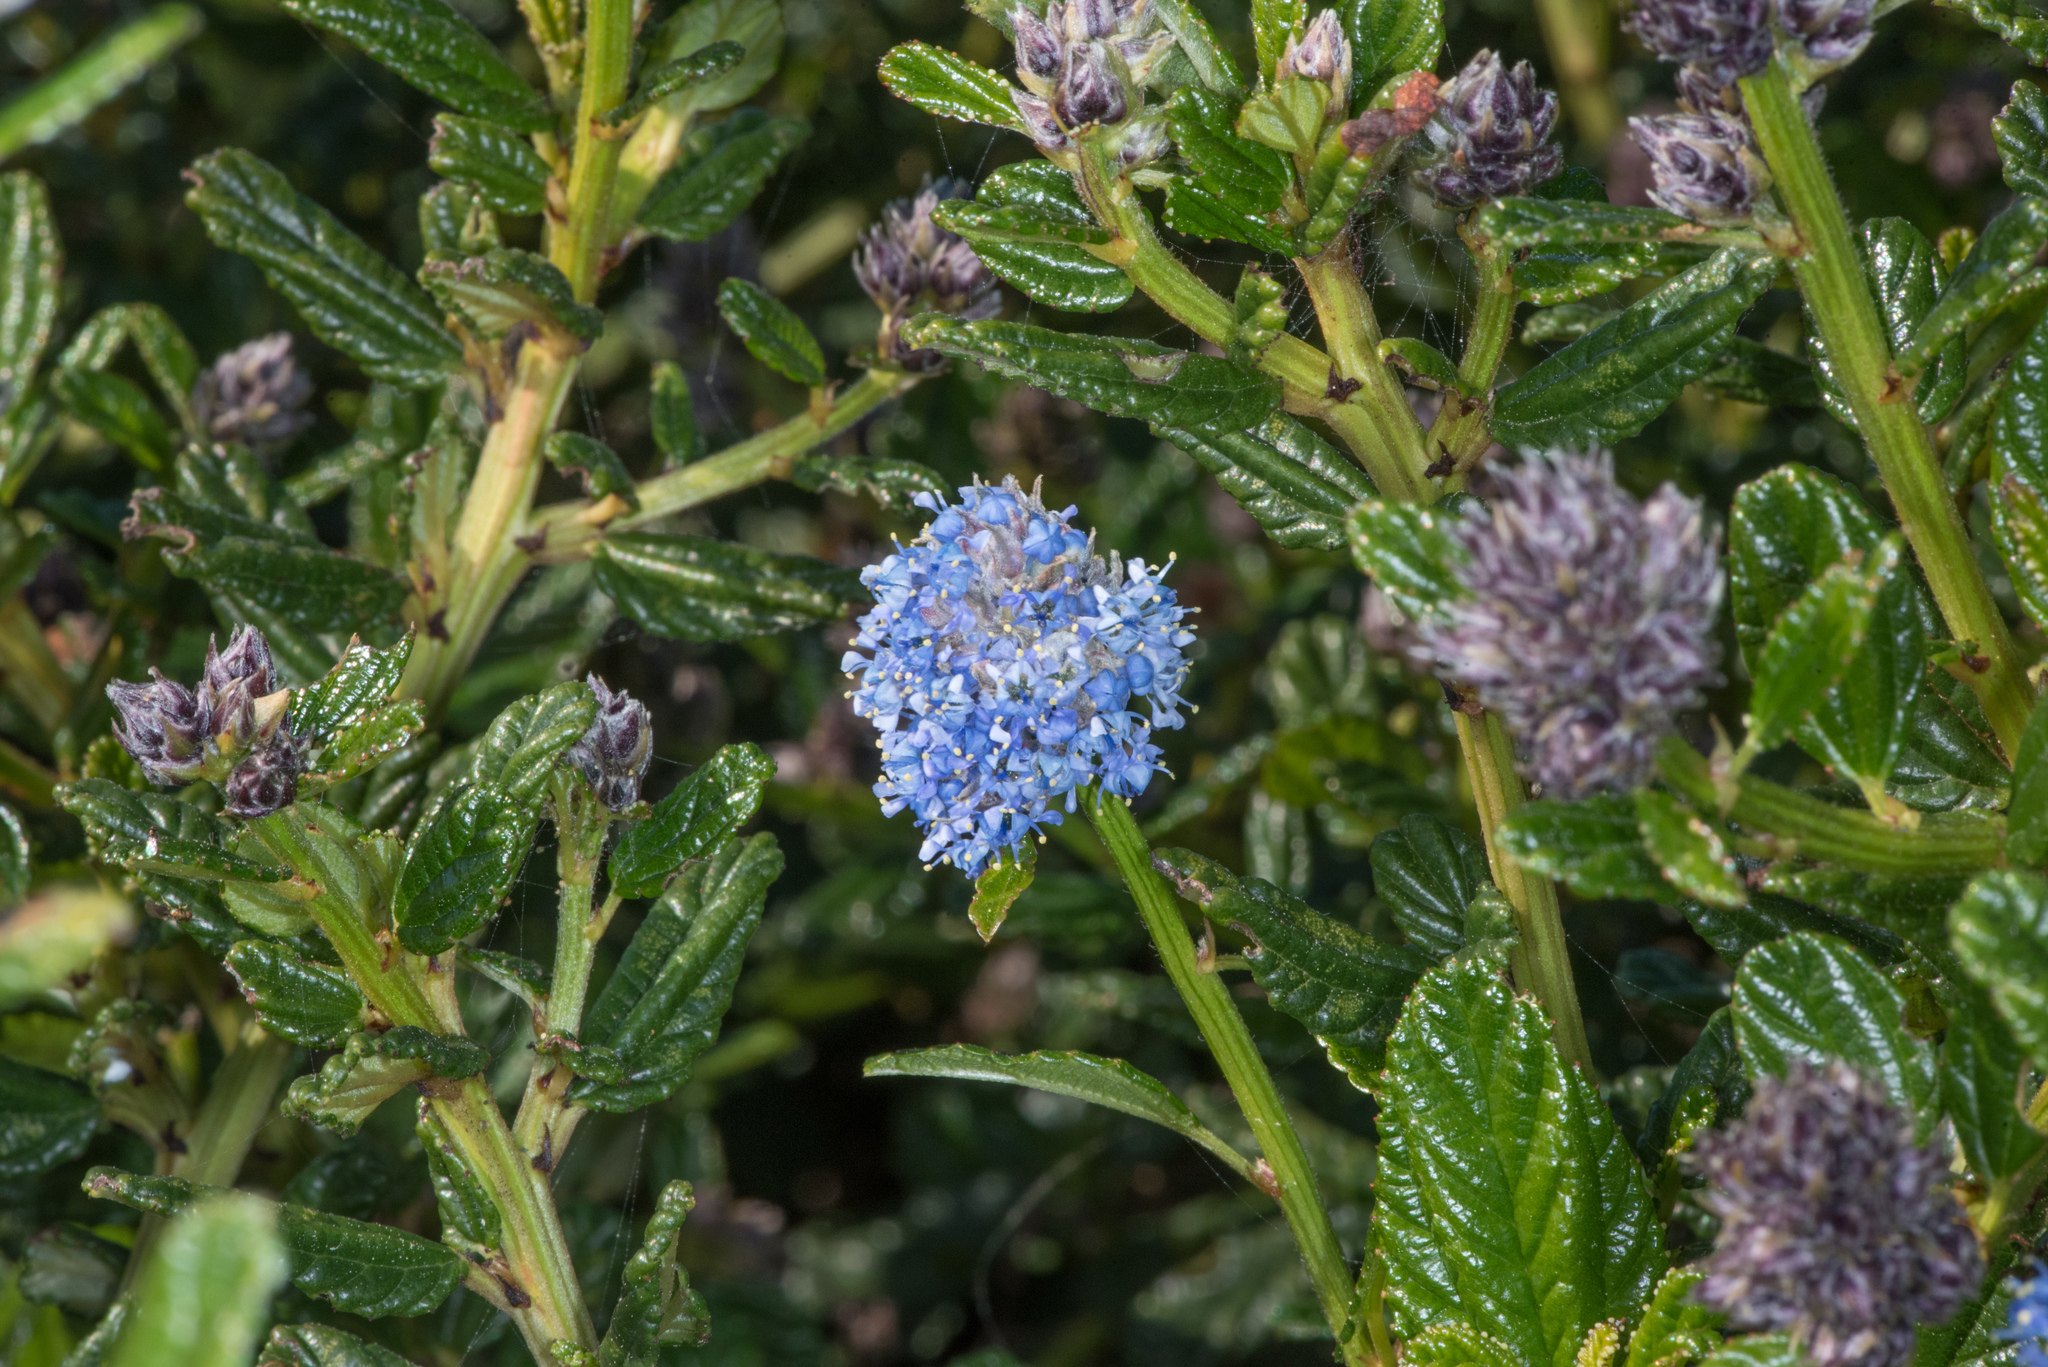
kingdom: Plantae
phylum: Tracheophyta
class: Magnoliopsida
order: Rosales
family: Rhamnaceae
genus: Ceanothus
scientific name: Ceanothus thyrsiflorus
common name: California-lilac
